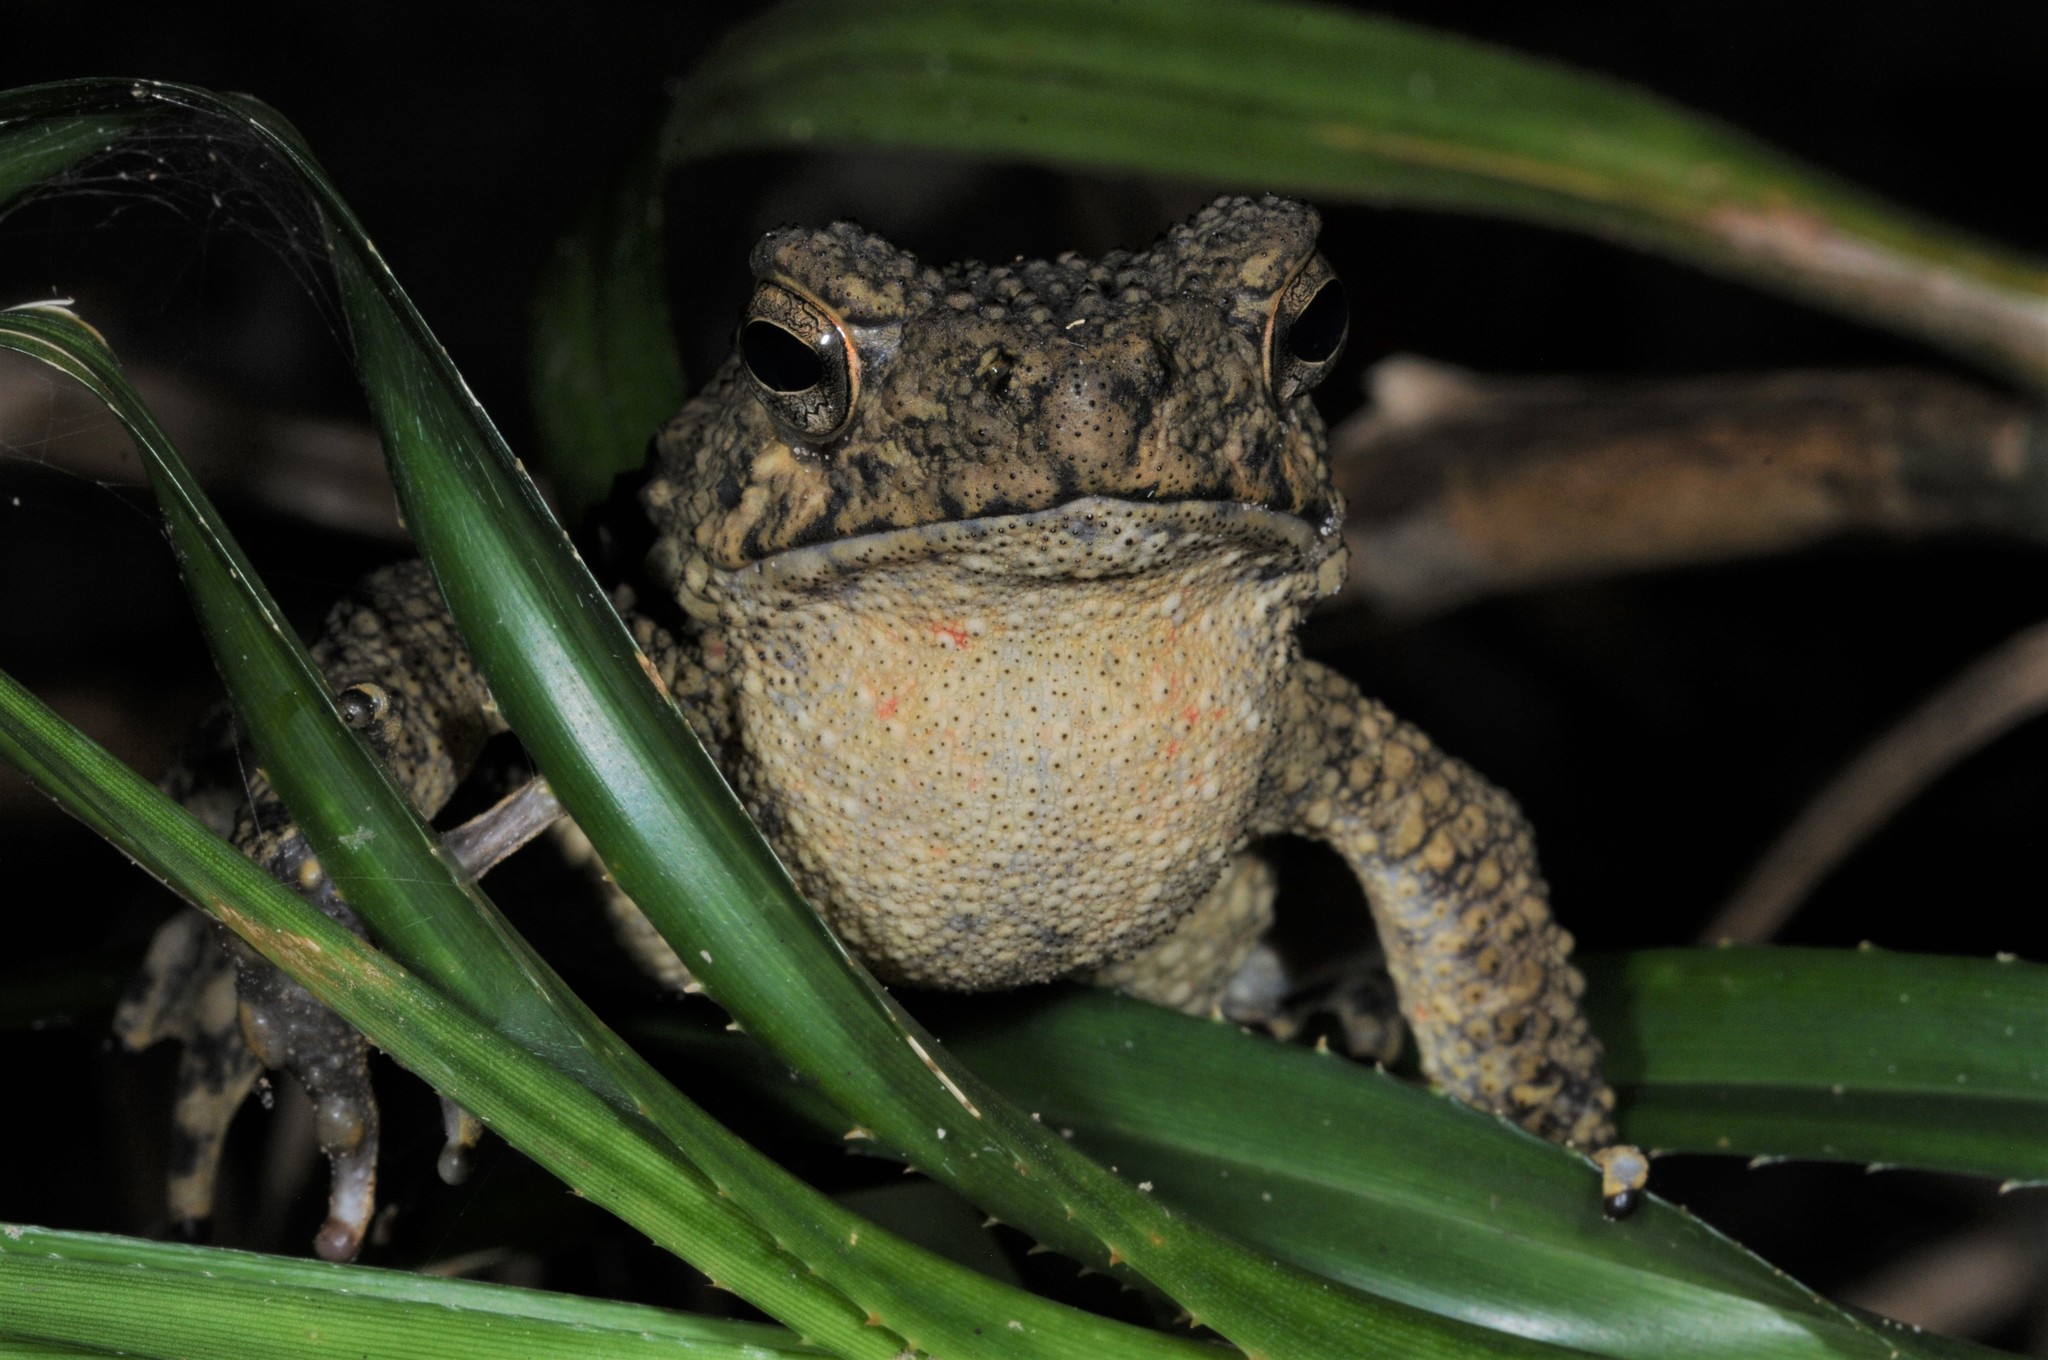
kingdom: Animalia
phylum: Chordata
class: Amphibia
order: Anura
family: Bufonidae
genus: Phrynoidis
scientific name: Phrynoidis asper
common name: Asian giant toad
